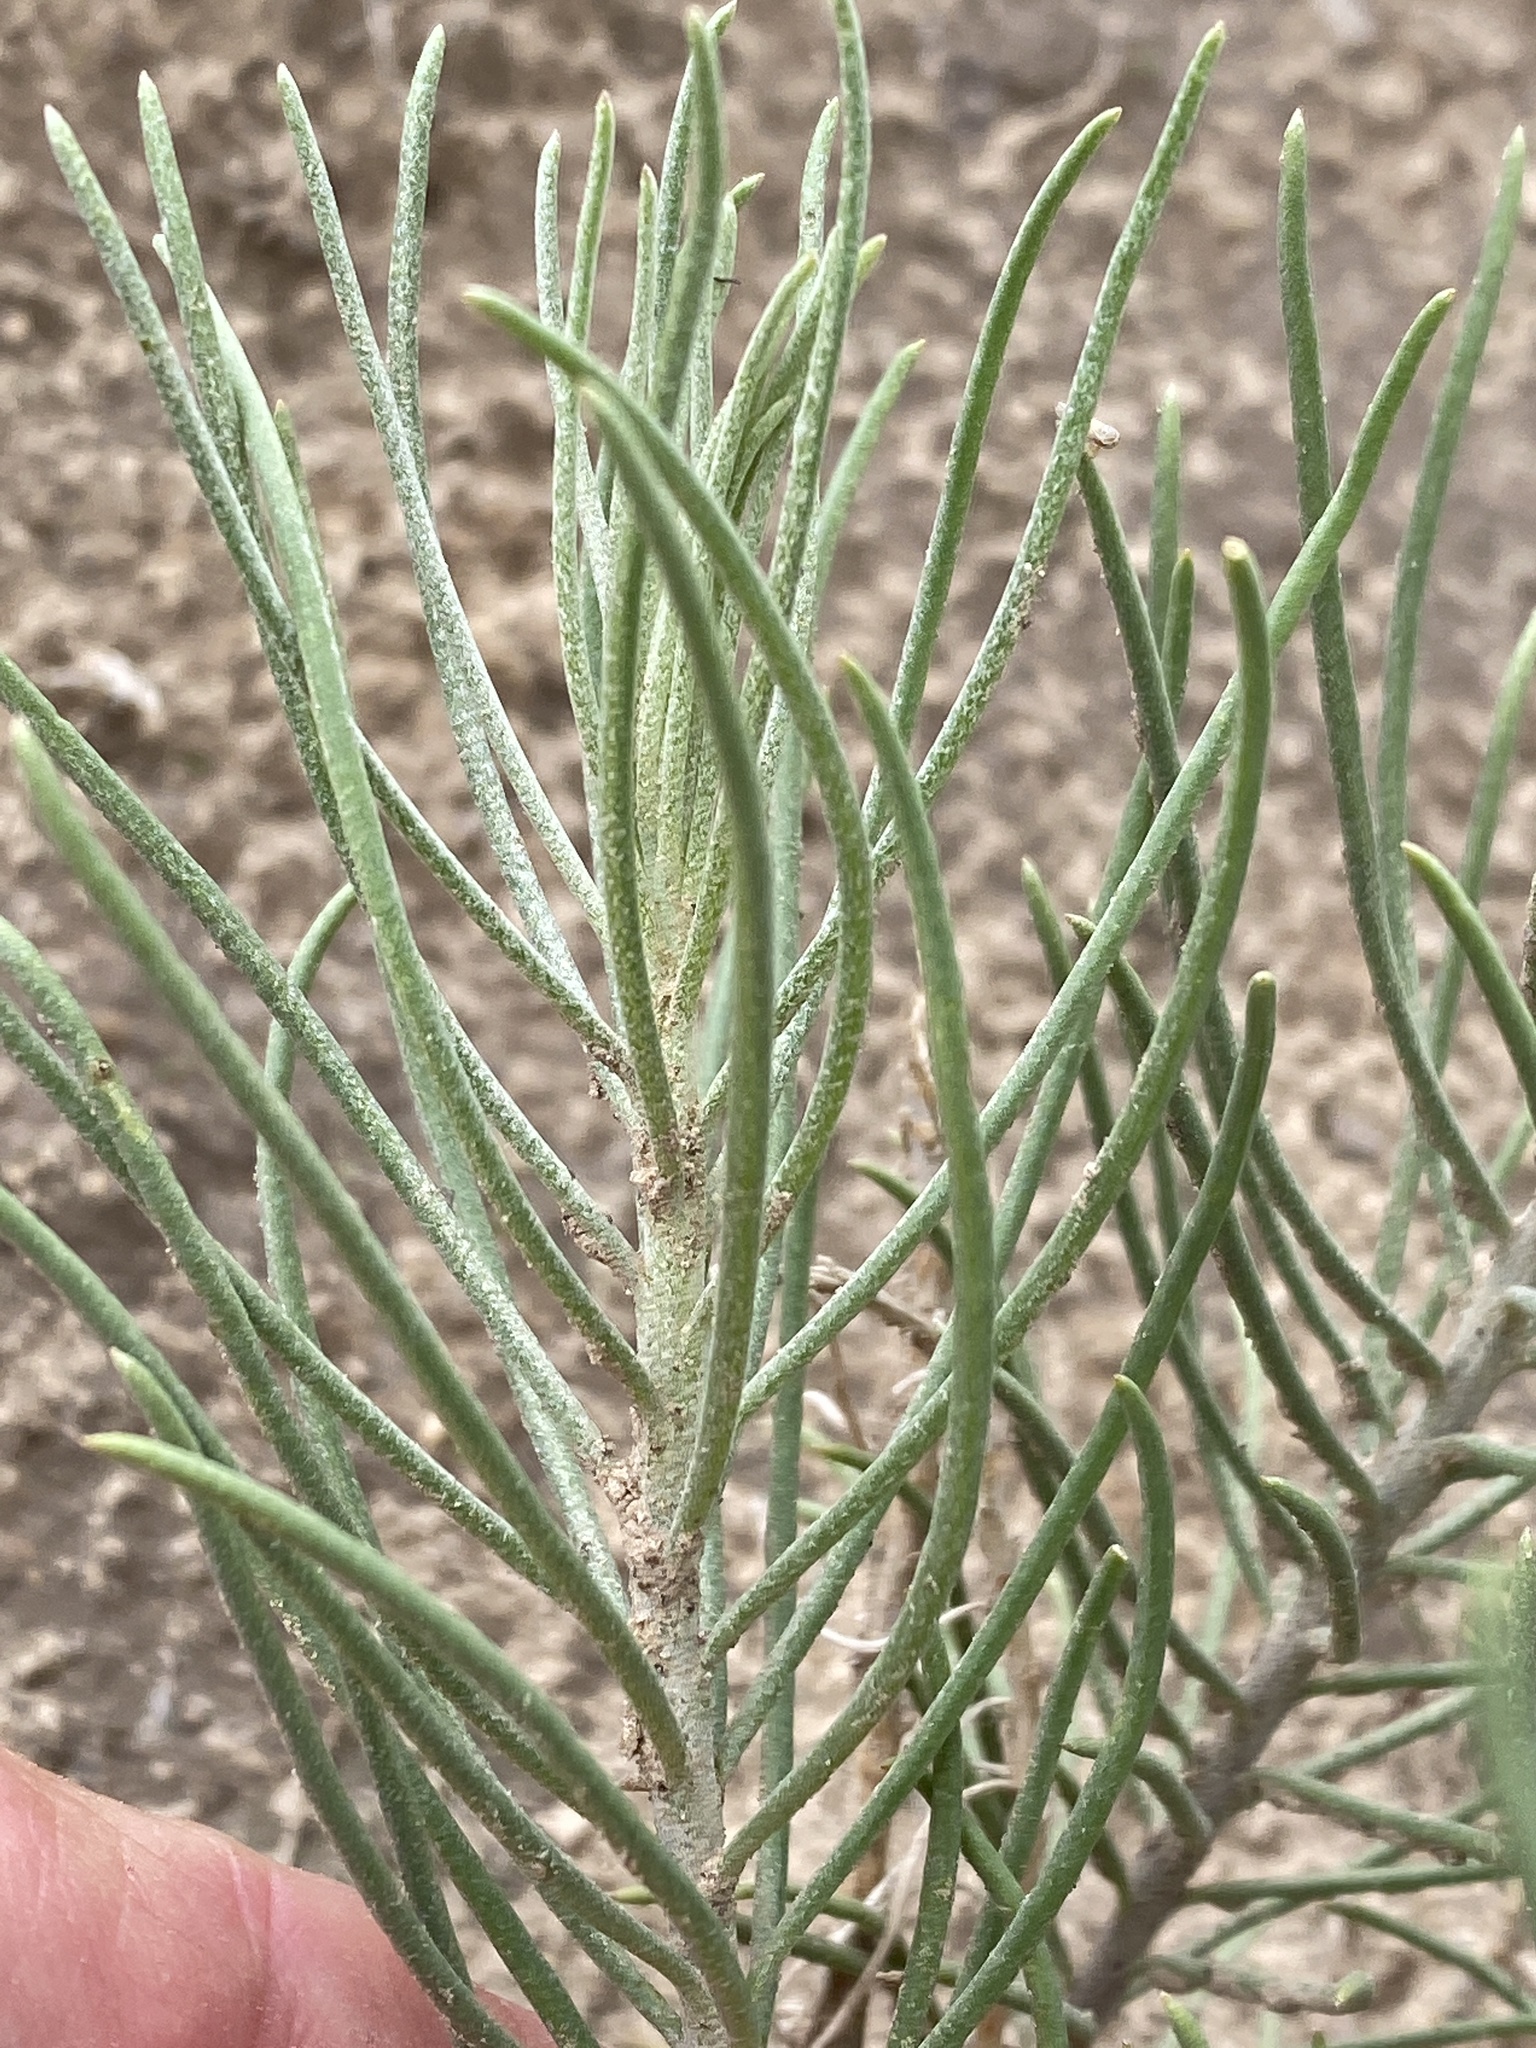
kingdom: Plantae
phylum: Tracheophyta
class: Magnoliopsida
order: Asterales
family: Asteraceae
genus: Senecio
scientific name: Senecio warnockii
